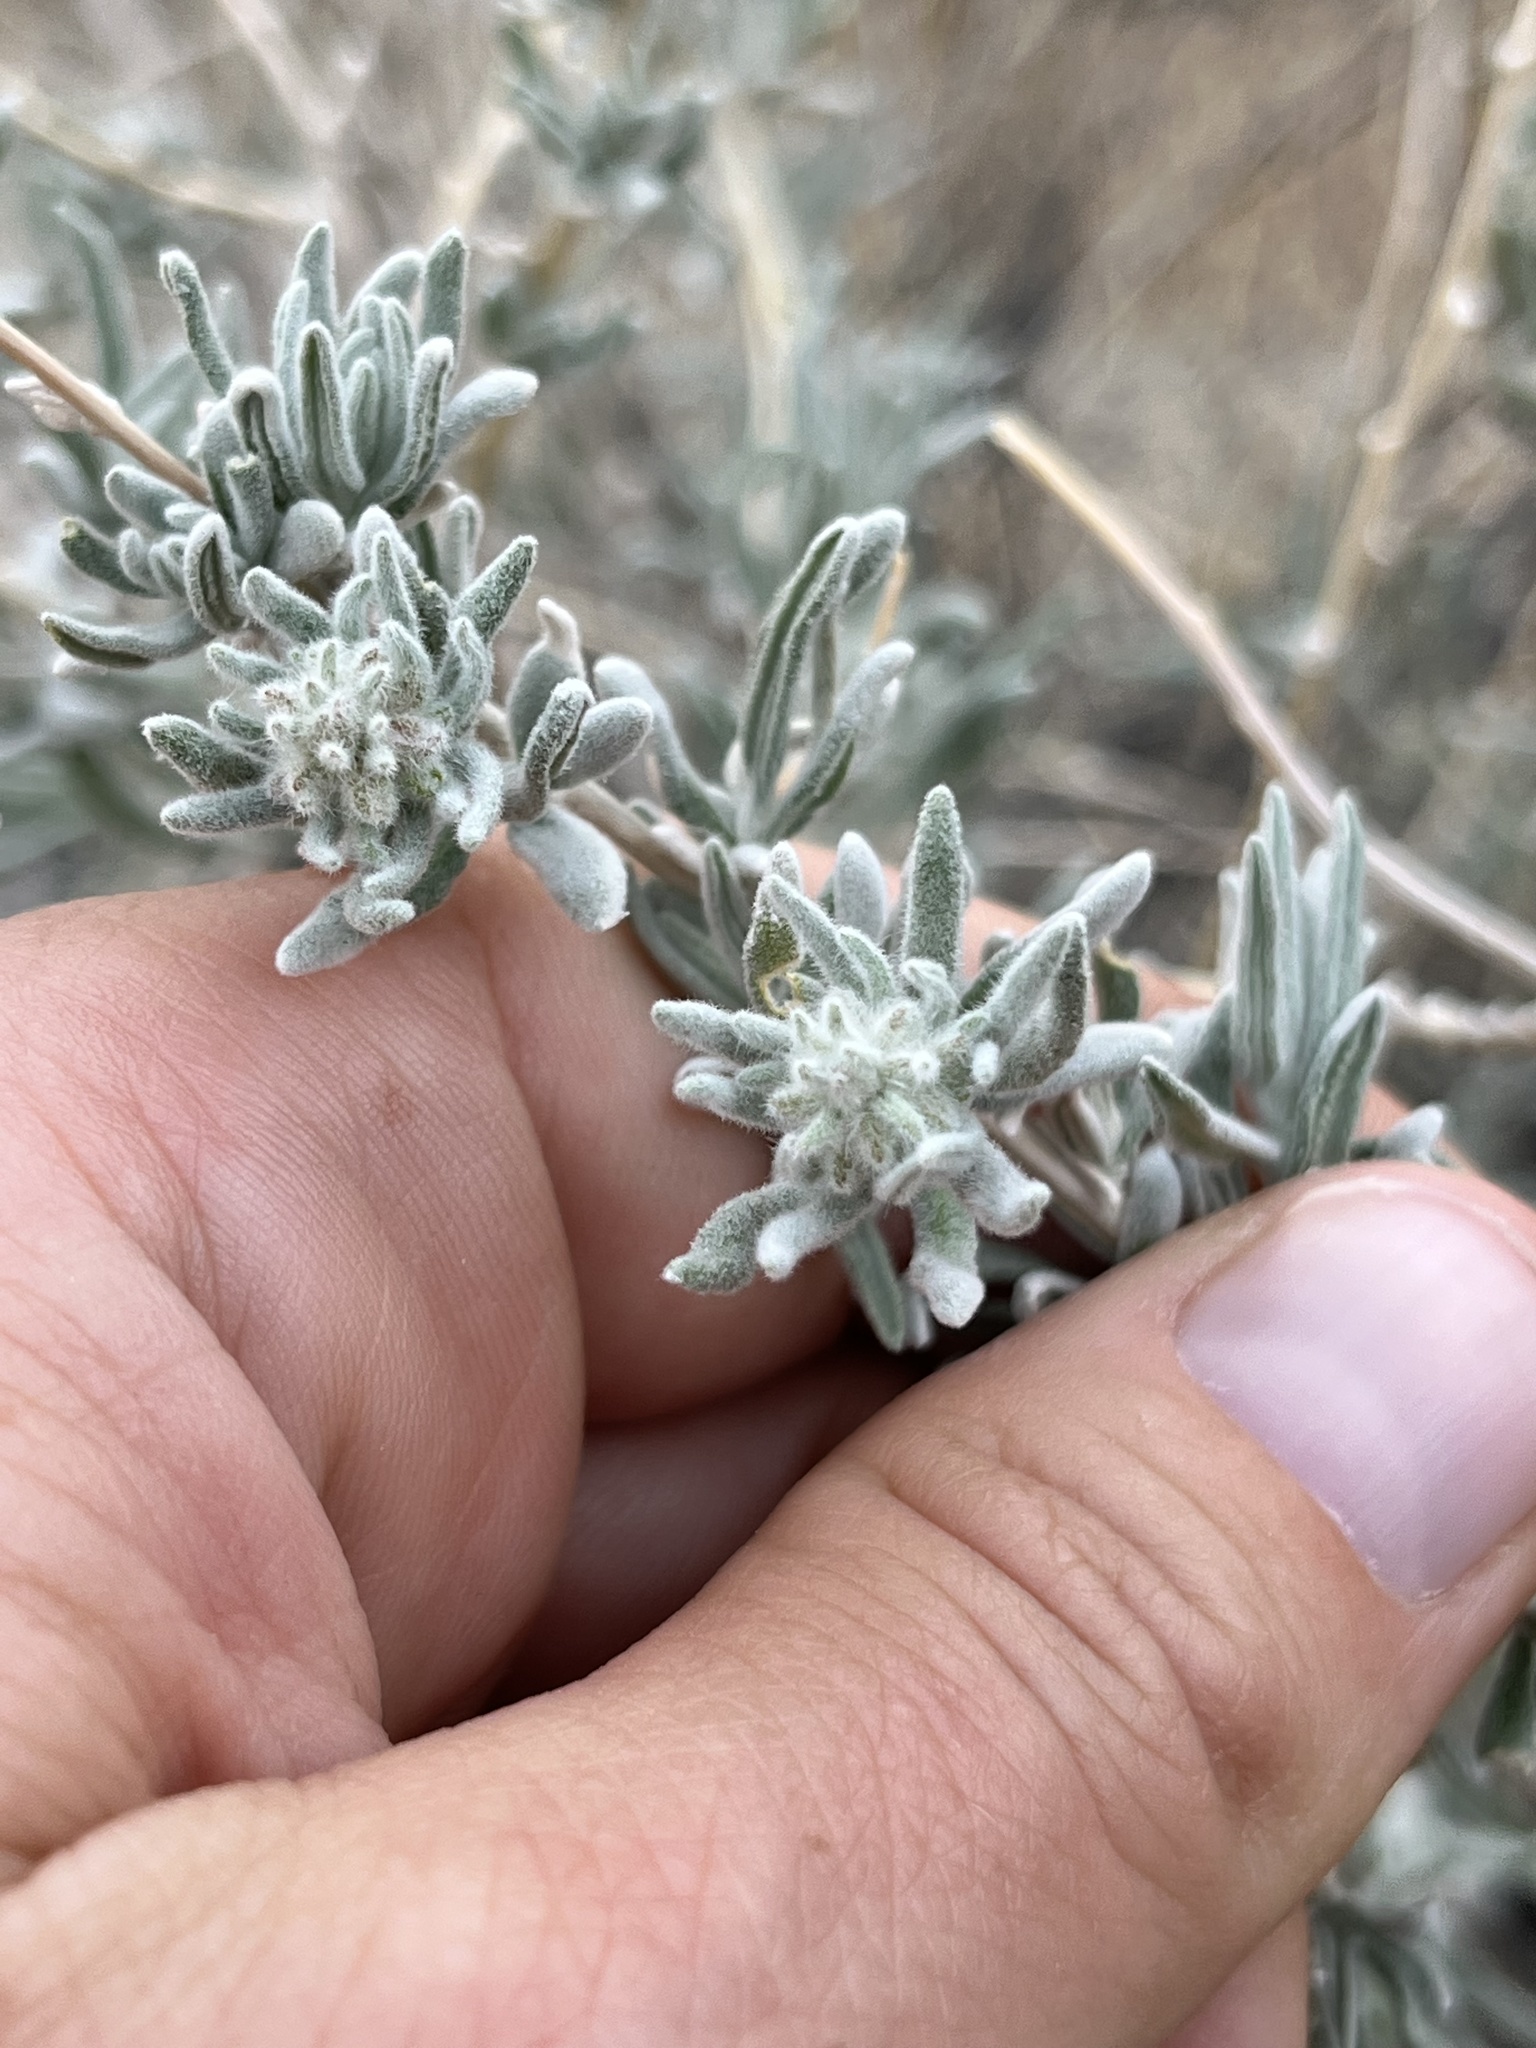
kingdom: Plantae
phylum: Tracheophyta
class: Magnoliopsida
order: Caryophyllales
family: Amaranthaceae
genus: Krascheninnikovia
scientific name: Krascheninnikovia lanata
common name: Winterfat
